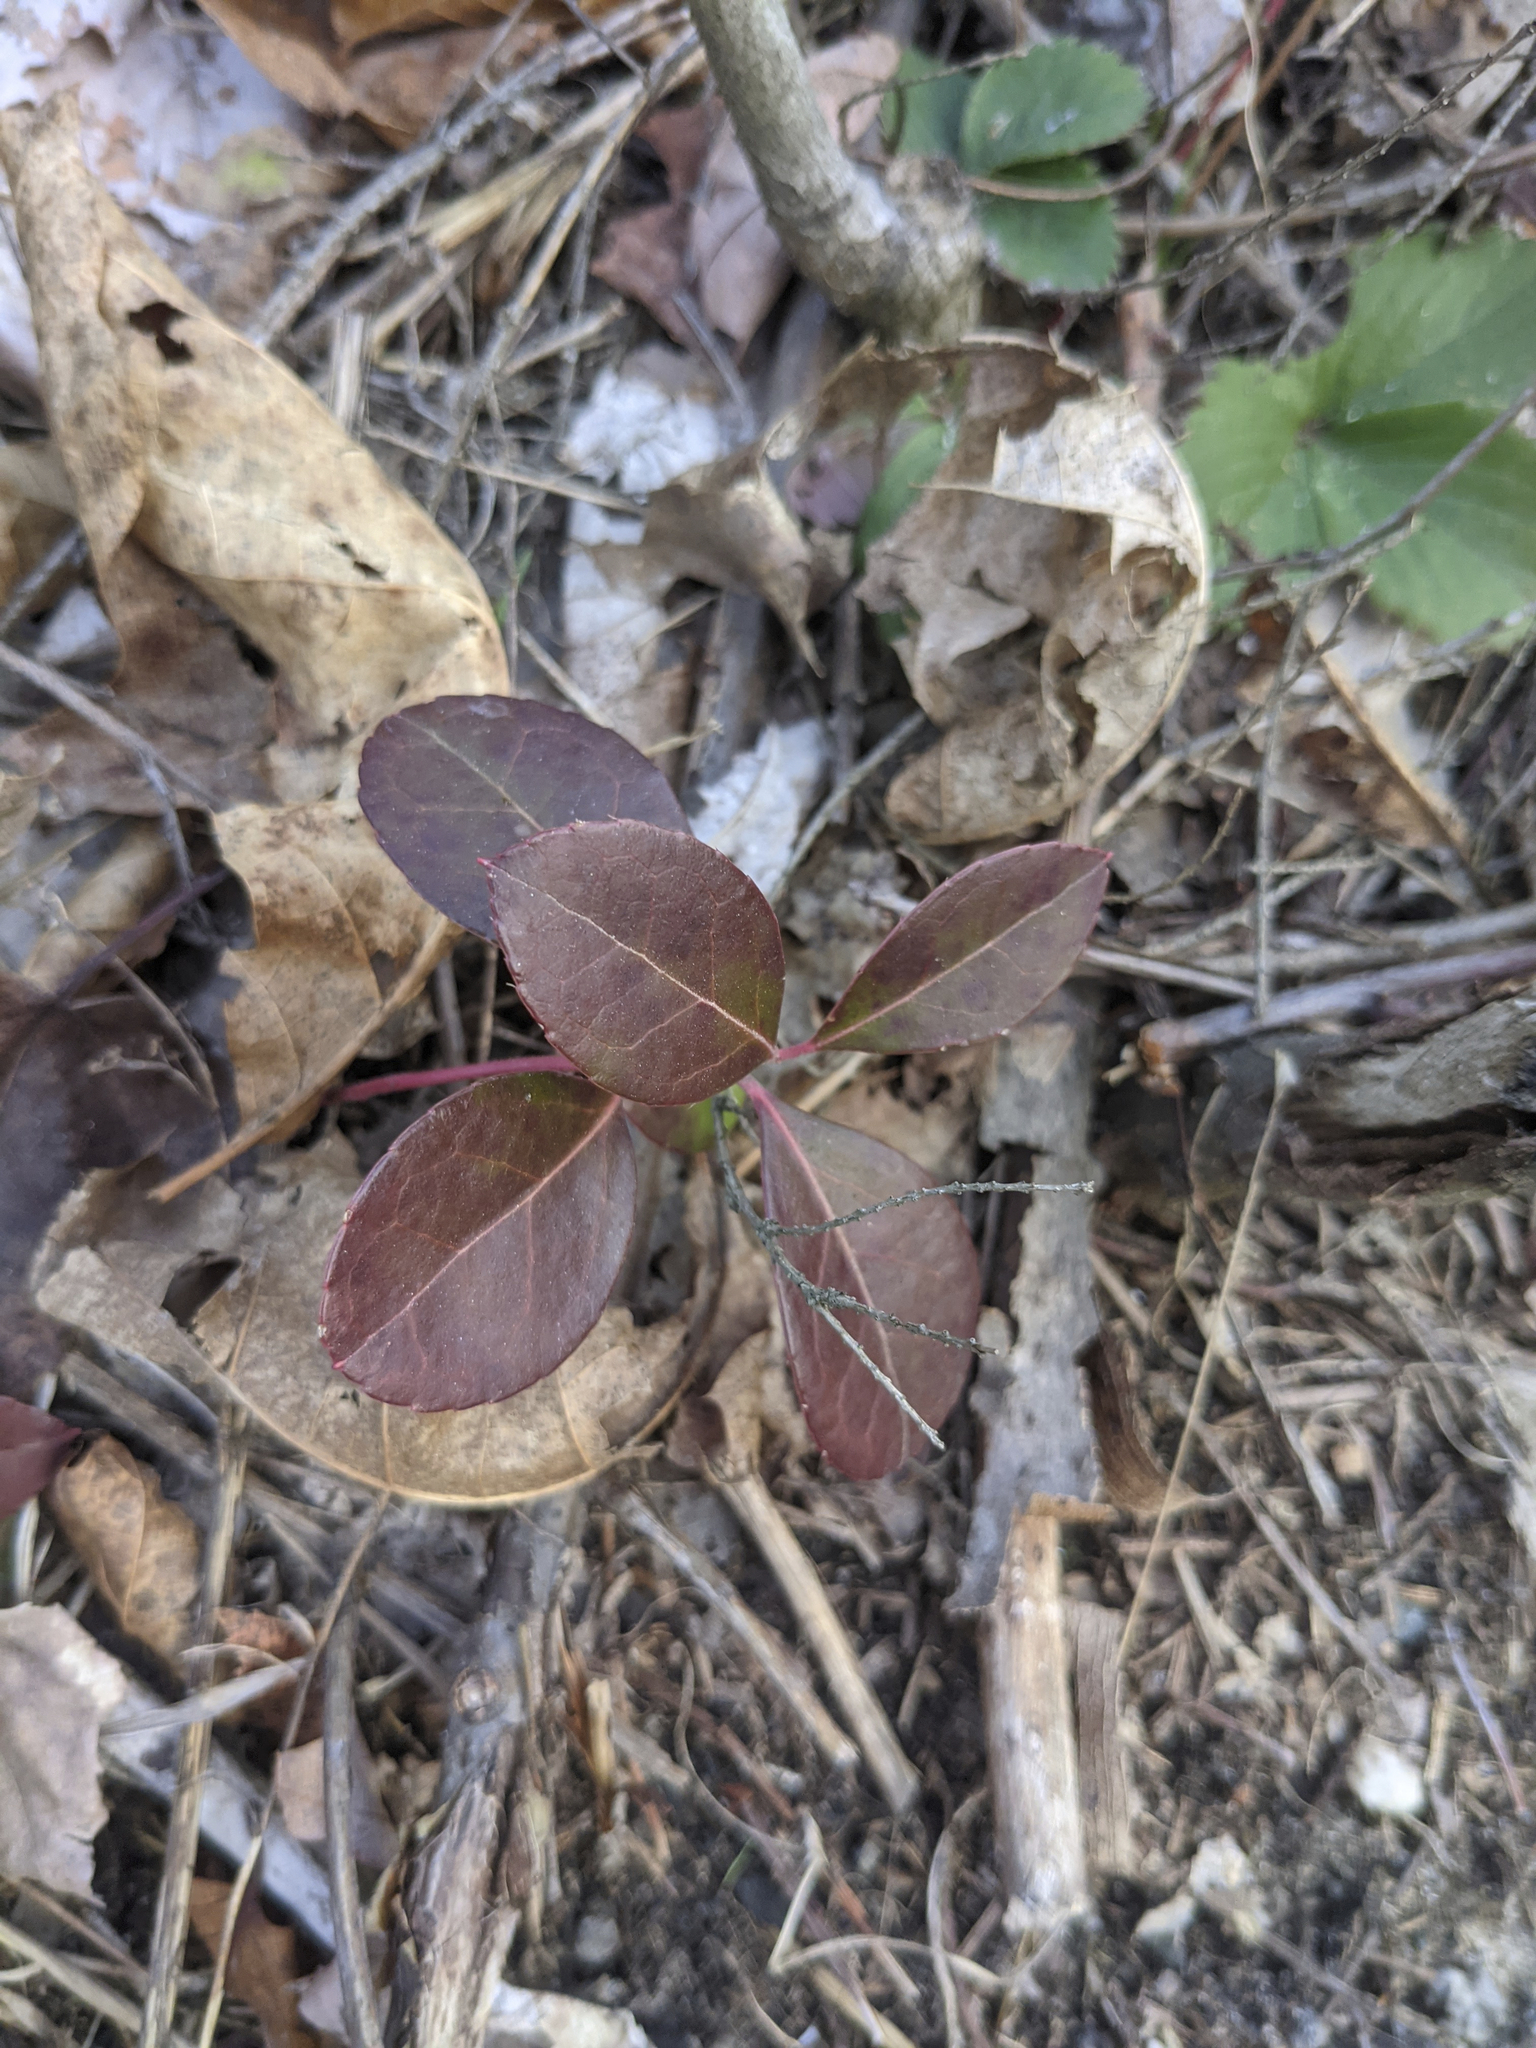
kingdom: Plantae
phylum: Tracheophyta
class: Magnoliopsida
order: Ericales
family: Ericaceae
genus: Gaultheria
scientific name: Gaultheria procumbens
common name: Checkerberry
